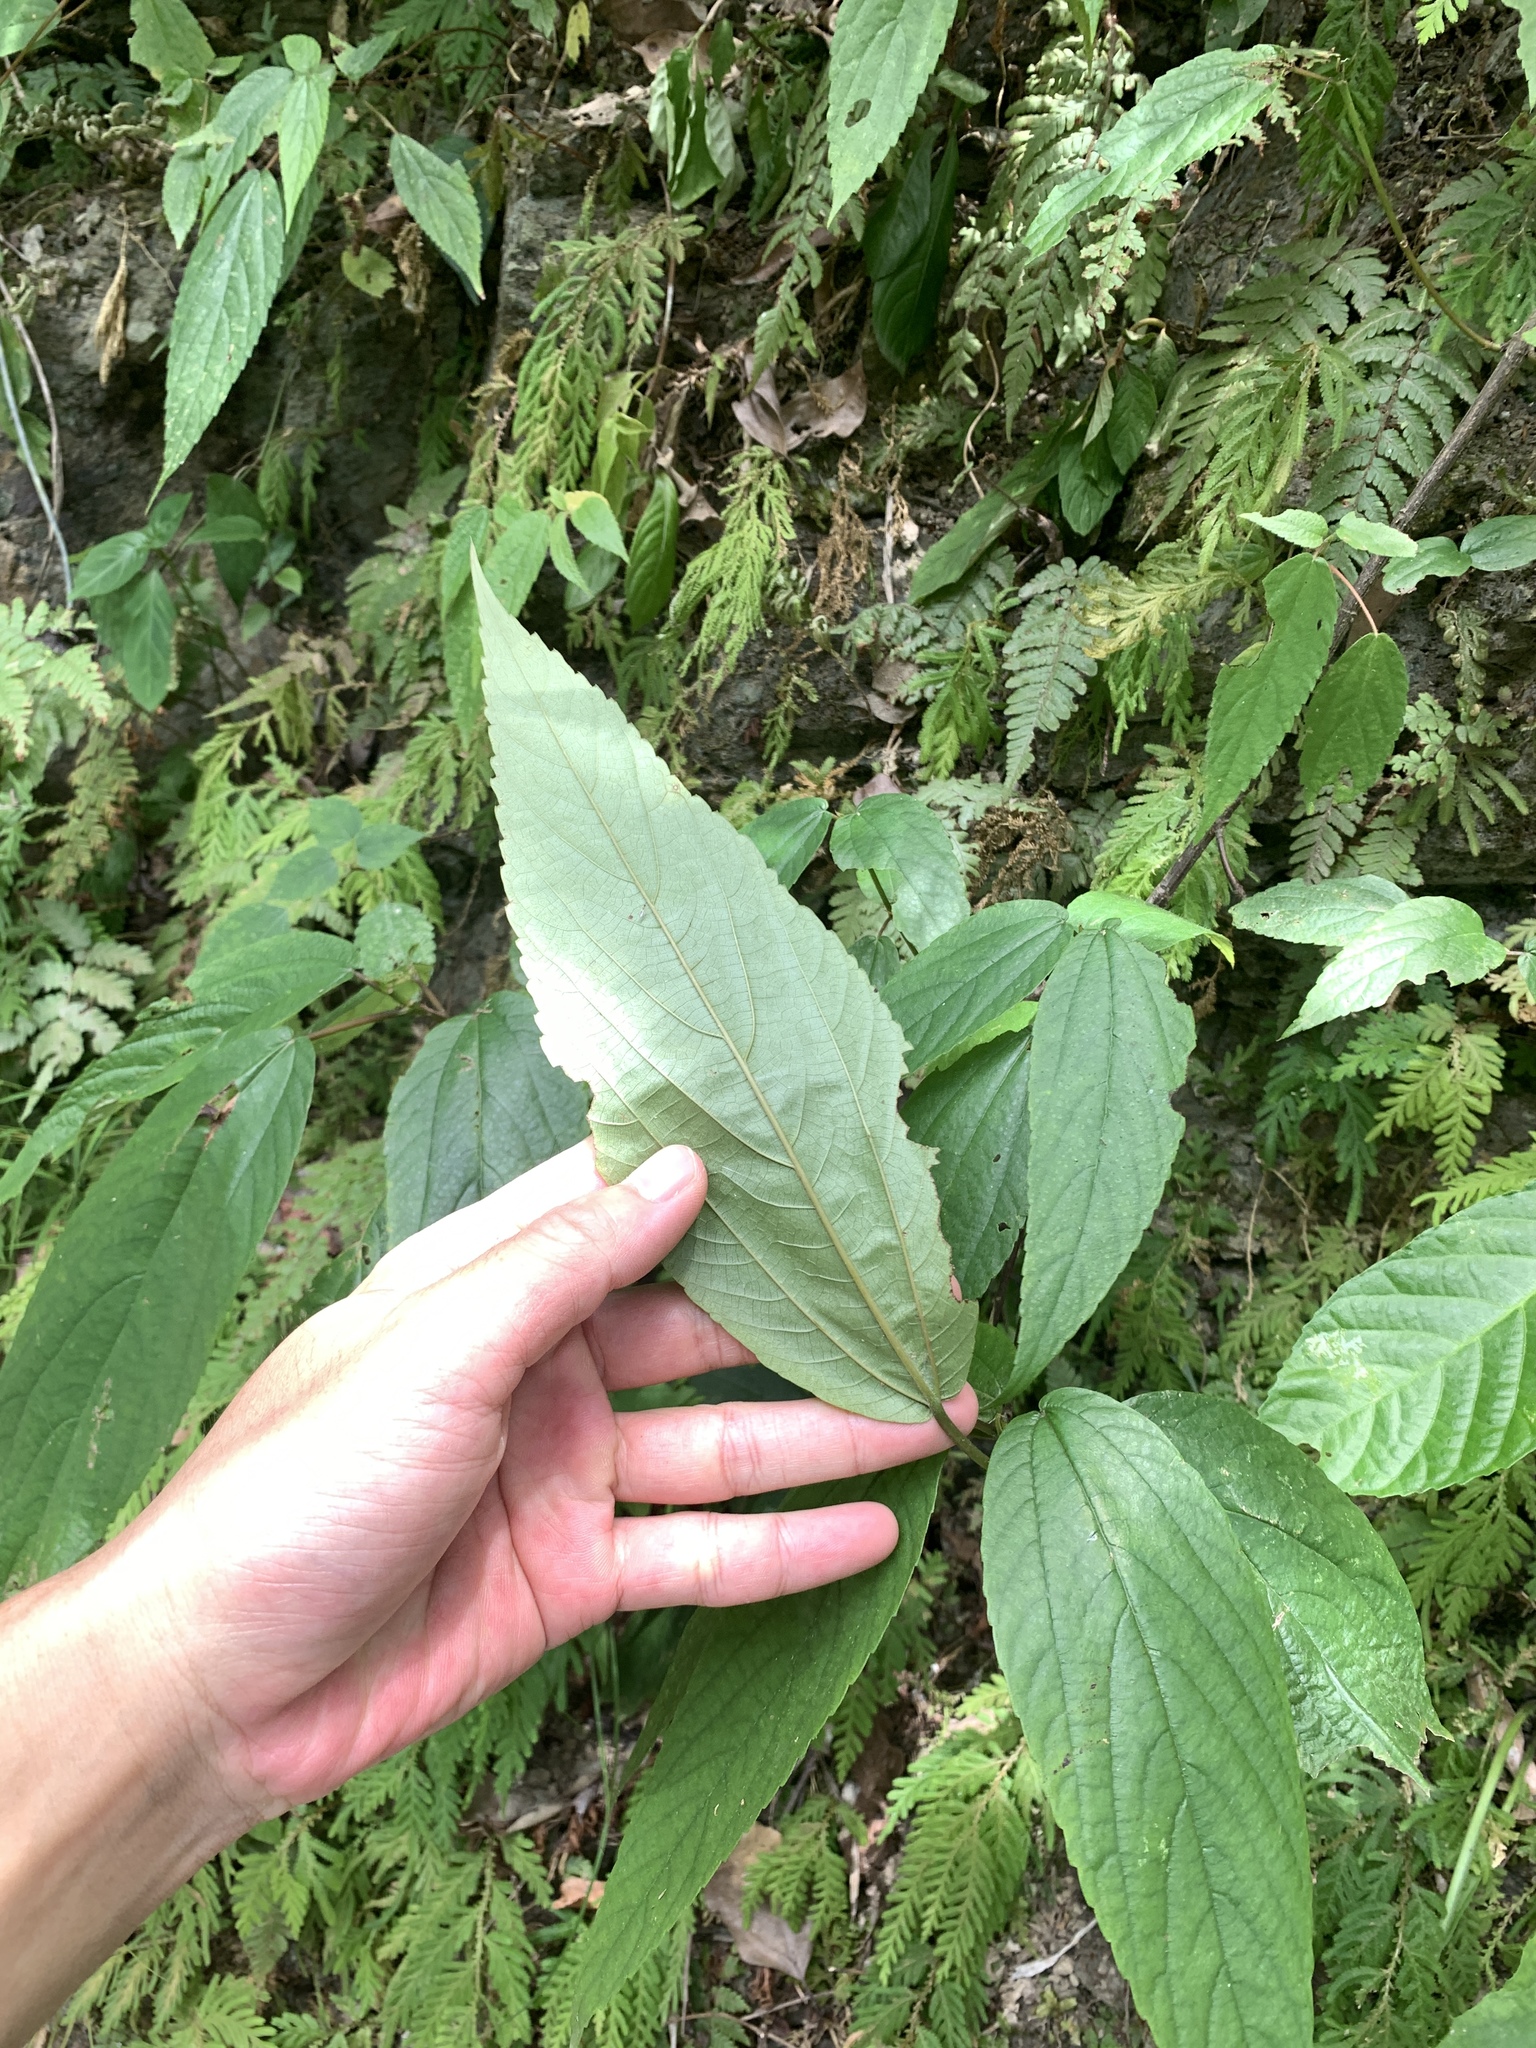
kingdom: Plantae
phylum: Tracheophyta
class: Magnoliopsida
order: Rosales
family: Urticaceae
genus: Boehmeria
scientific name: Boehmeria zollingeriana
